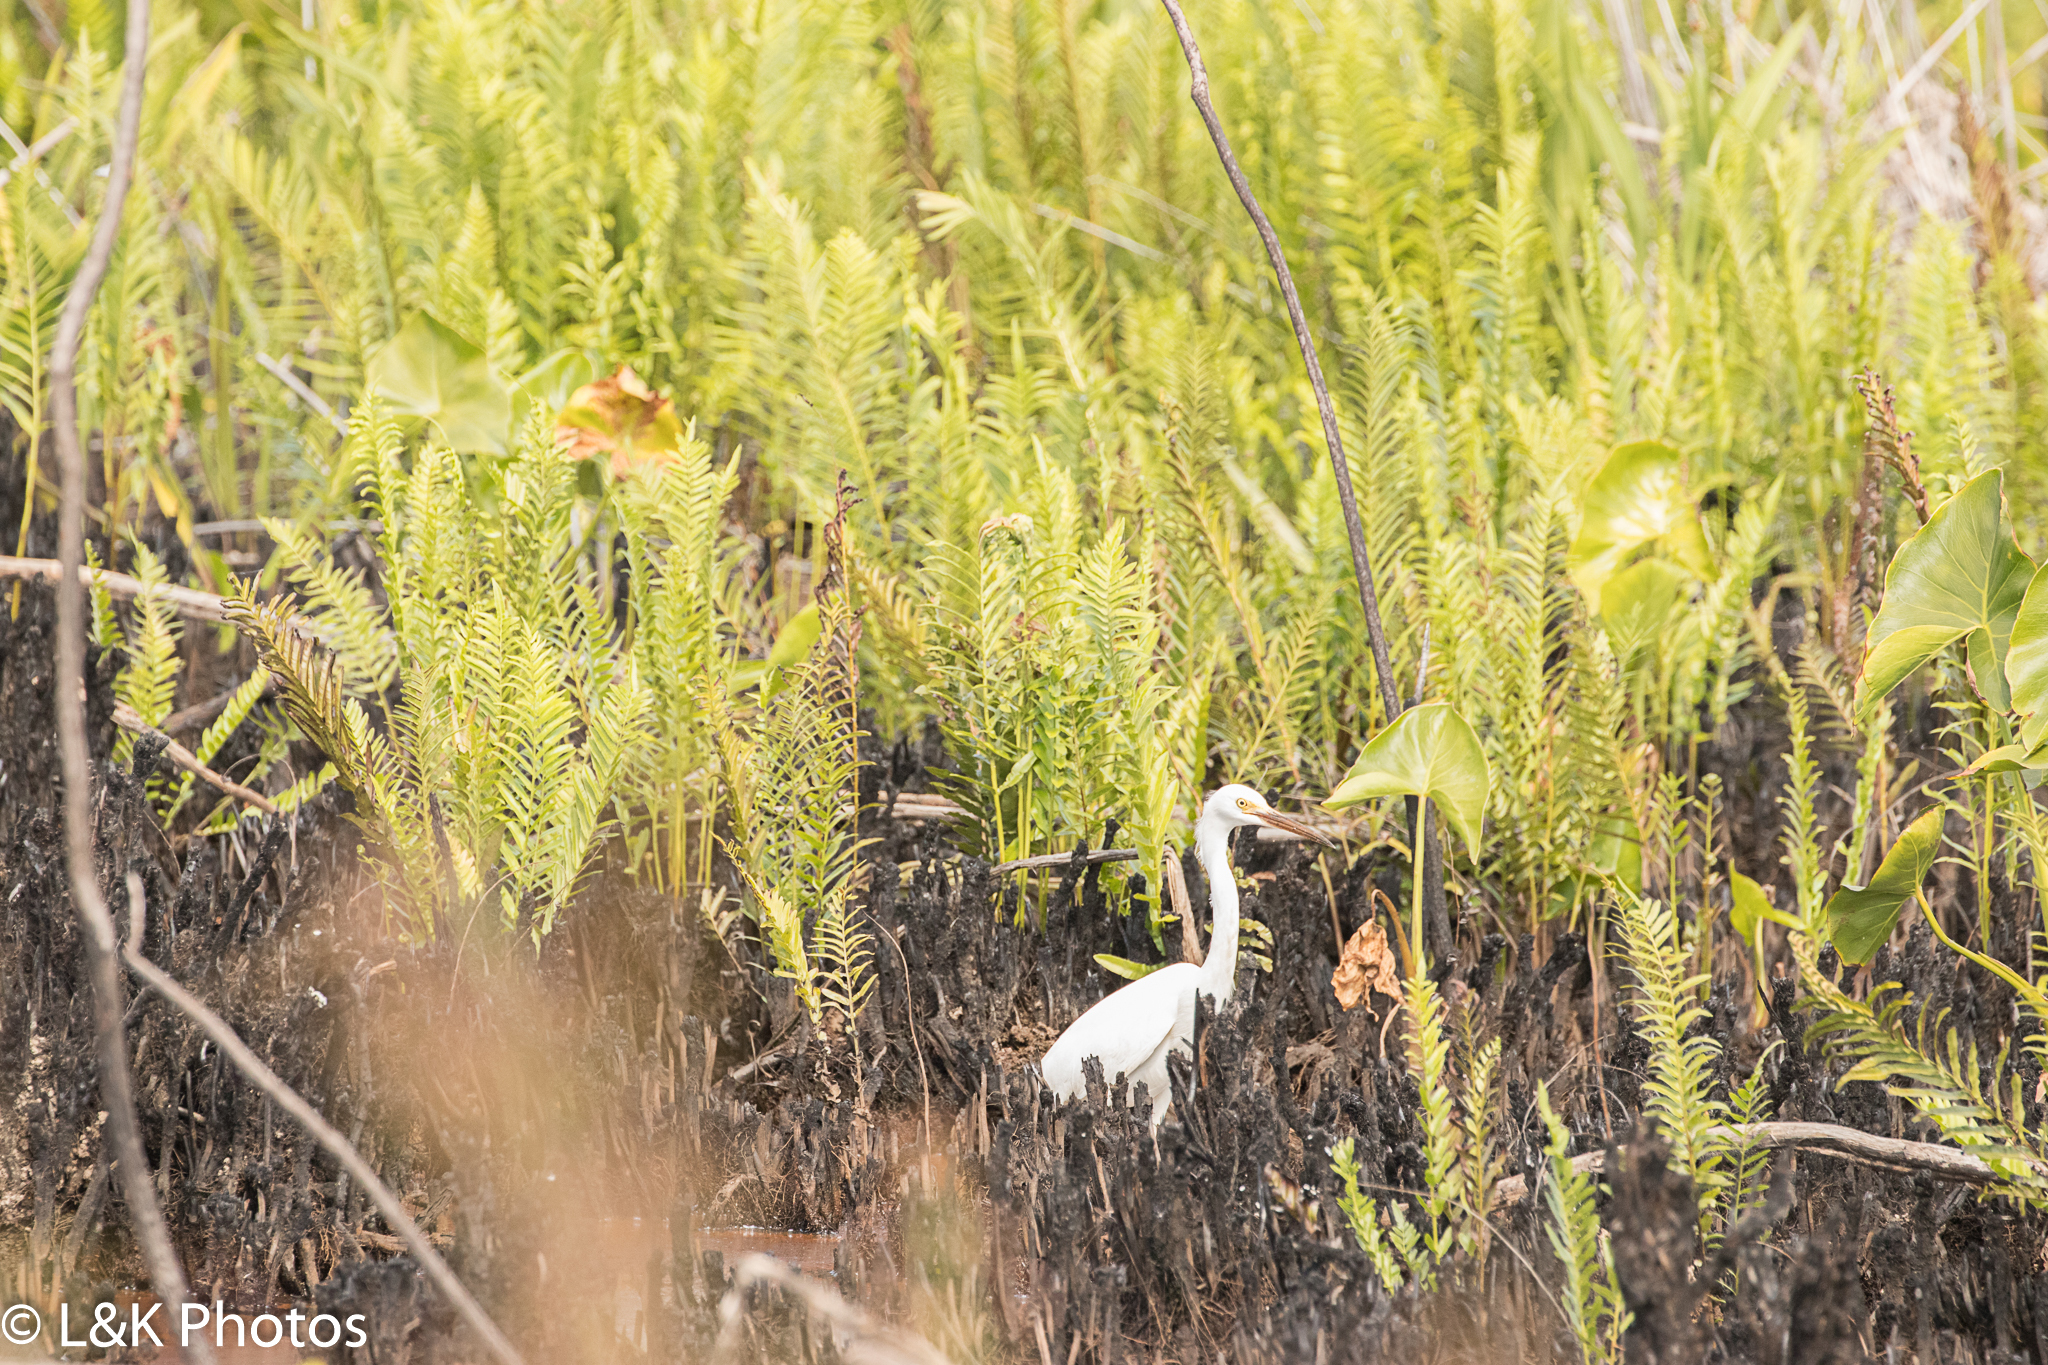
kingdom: Animalia
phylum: Chordata
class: Aves
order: Pelecaniformes
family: Ardeidae
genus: Egretta
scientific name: Egretta thula
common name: Snowy egret
